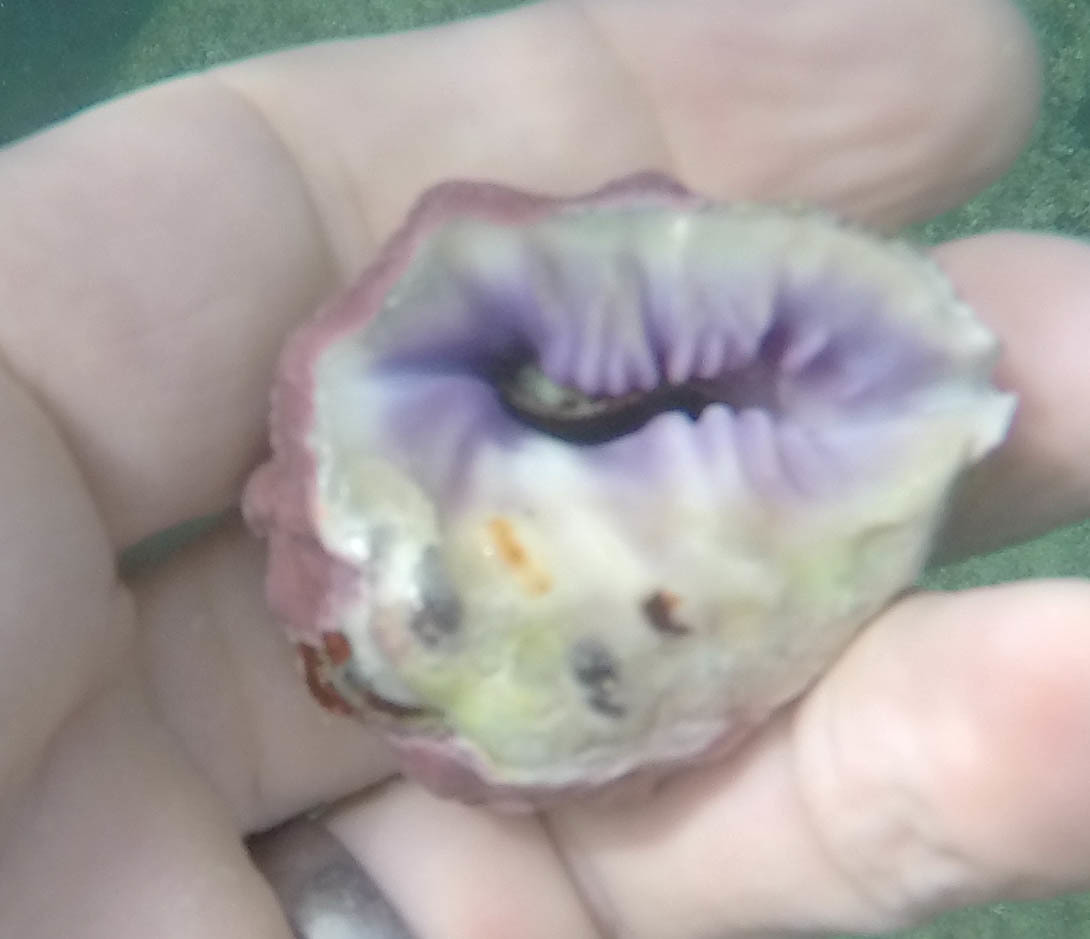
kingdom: Animalia
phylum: Mollusca
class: Gastropoda
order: Neogastropoda
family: Muricidae
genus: Drupa
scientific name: Drupa morum
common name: Purple drupe
